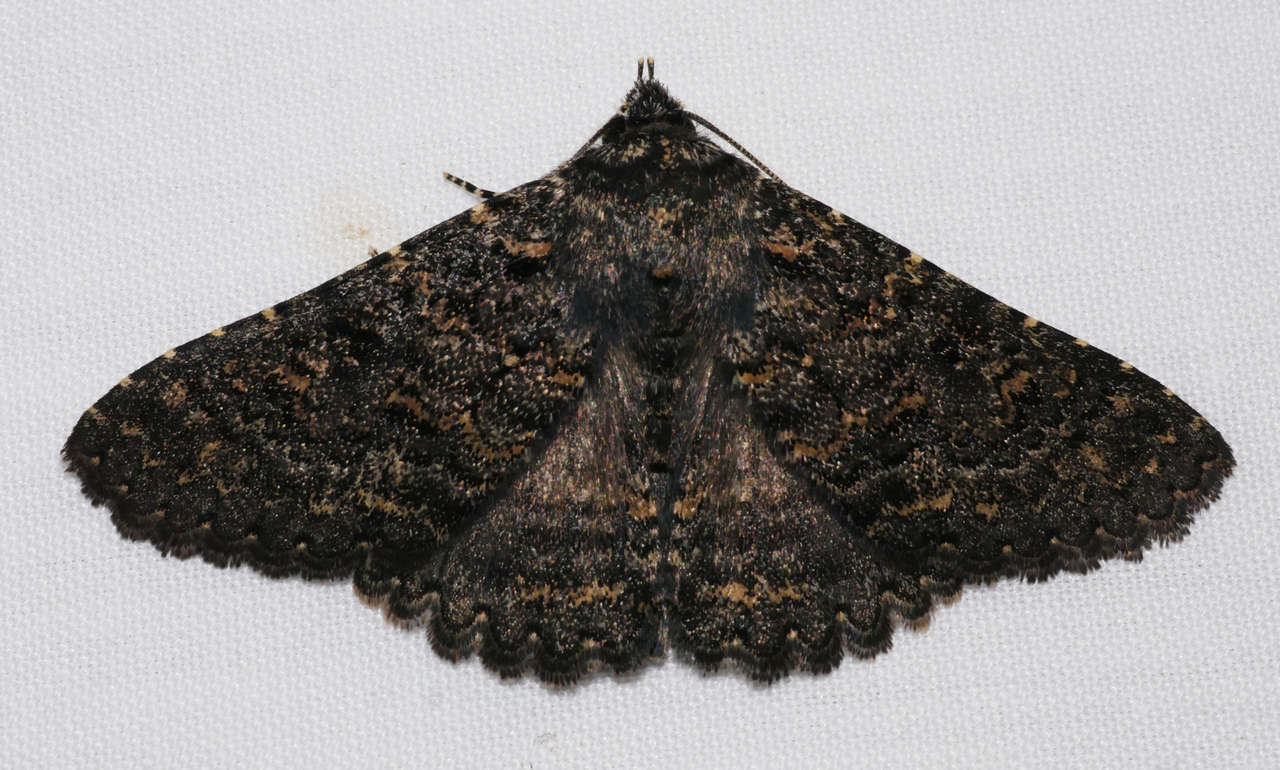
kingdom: Animalia
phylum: Arthropoda
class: Insecta
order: Lepidoptera
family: Erebidae
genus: Praxis
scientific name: Praxis edwardsii
